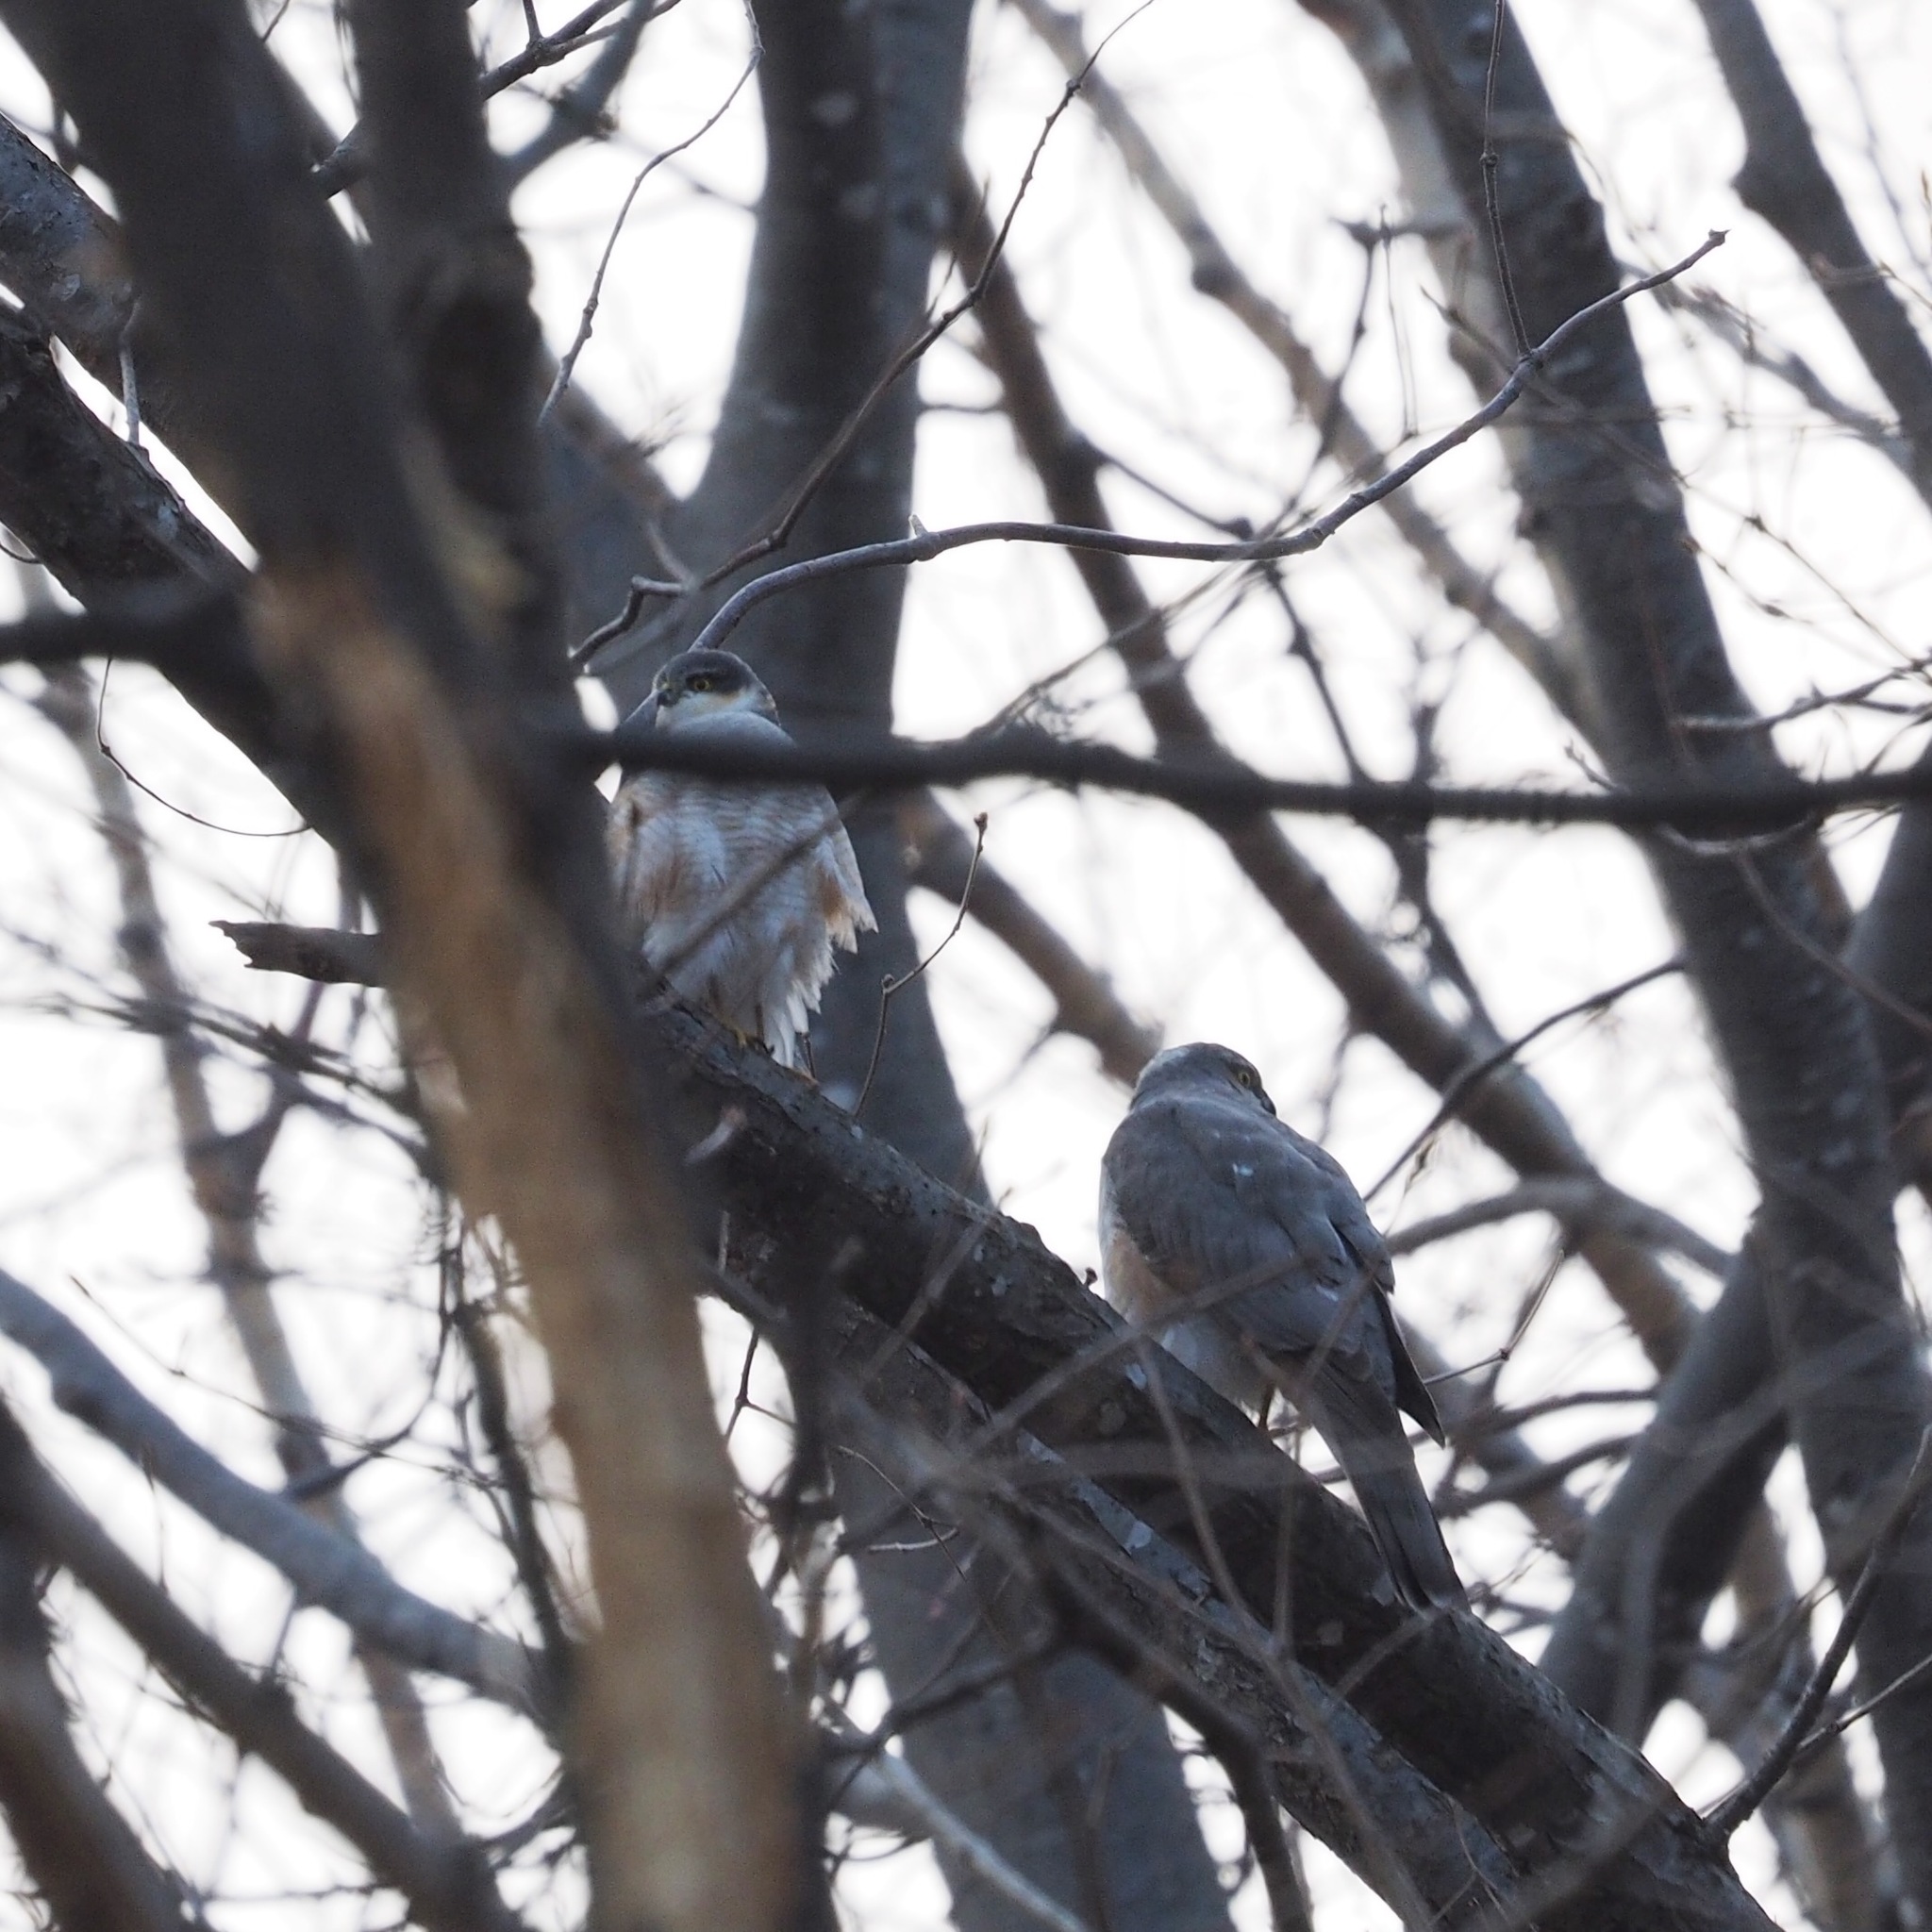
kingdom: Animalia
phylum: Chordata
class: Aves
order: Accipitriformes
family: Accipitridae
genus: Accipiter
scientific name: Accipiter nisus
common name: Eurasian sparrowhawk
